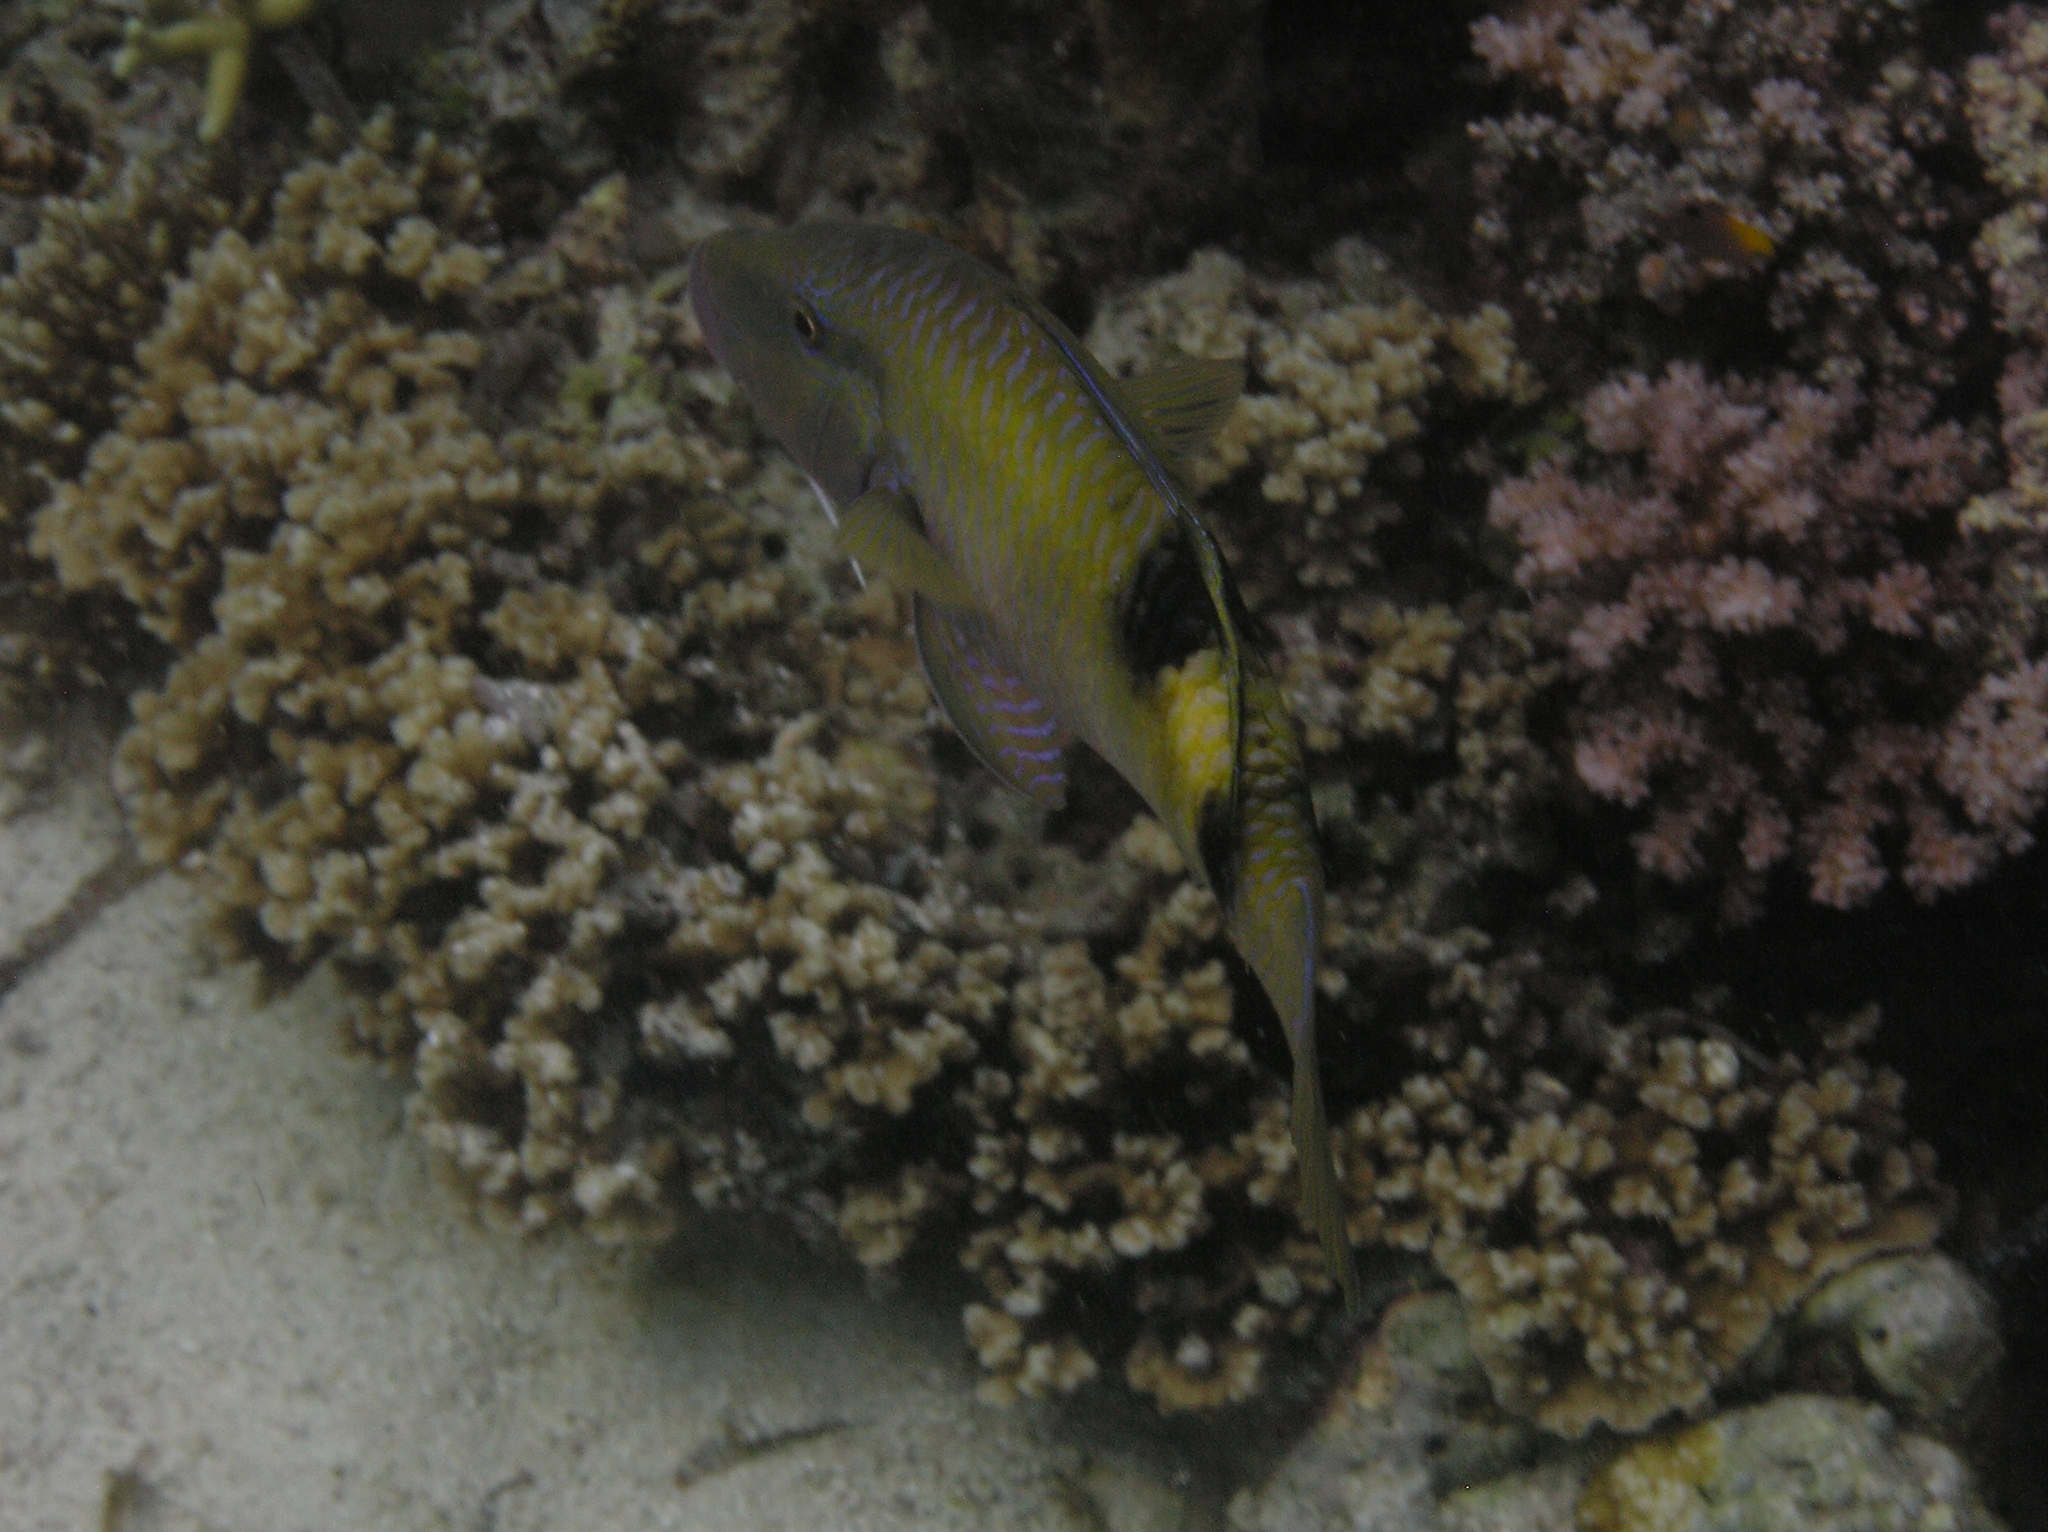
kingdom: Animalia
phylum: Chordata
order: Perciformes
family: Mullidae
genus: Parupeneus
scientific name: Parupeneus multifasciatus
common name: Manybar goatfish
